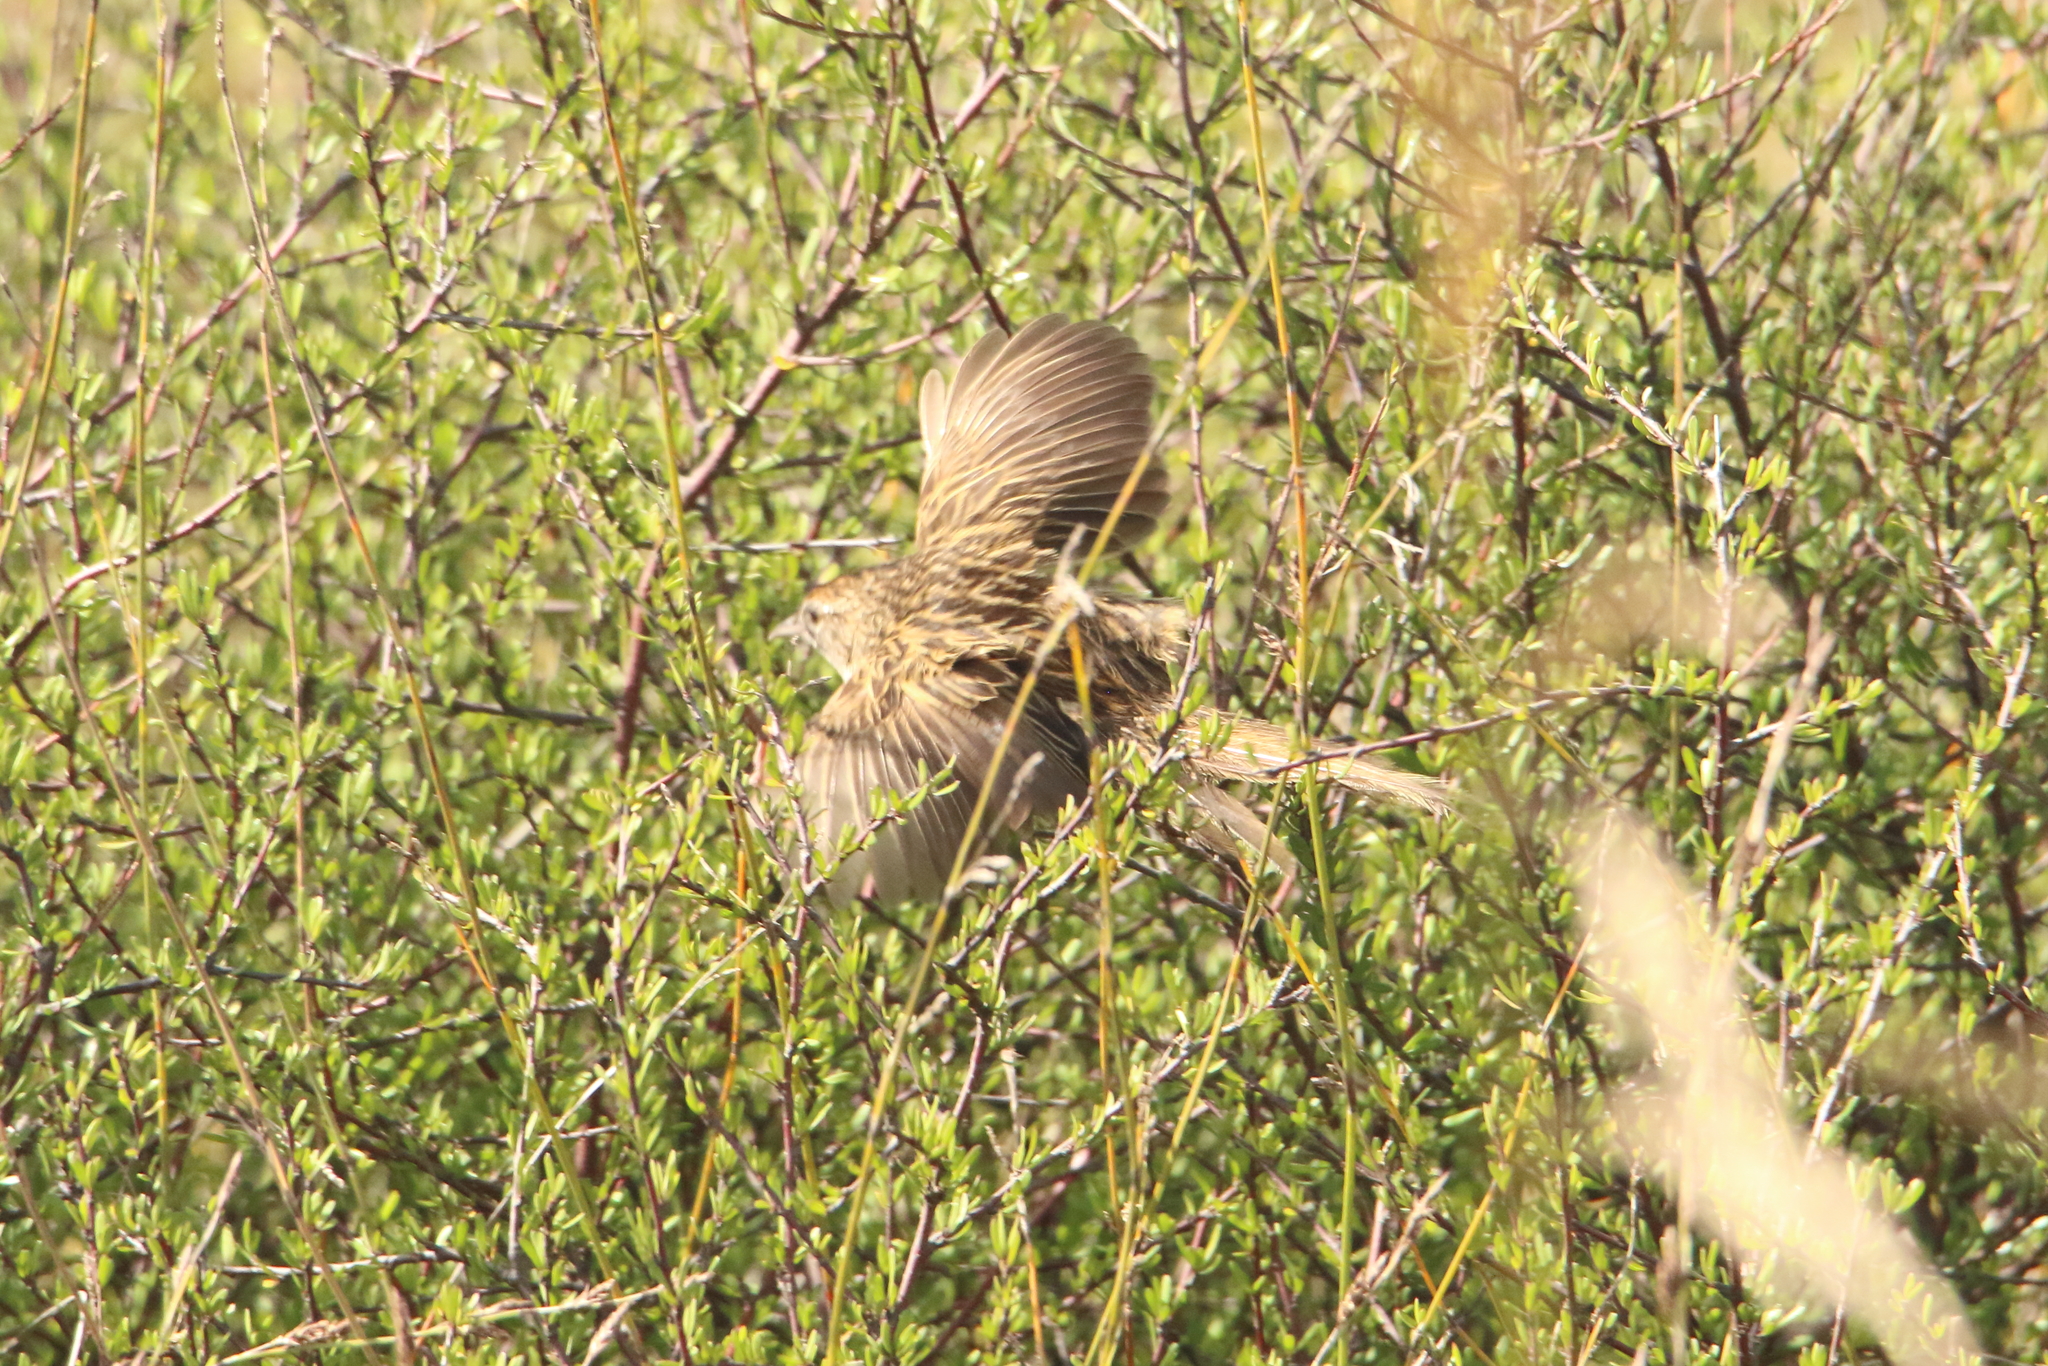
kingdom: Animalia
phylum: Chordata
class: Aves
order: Passeriformes
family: Locustellidae
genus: Megalurus
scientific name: Megalurus punctatus
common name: New zealand fernbird
